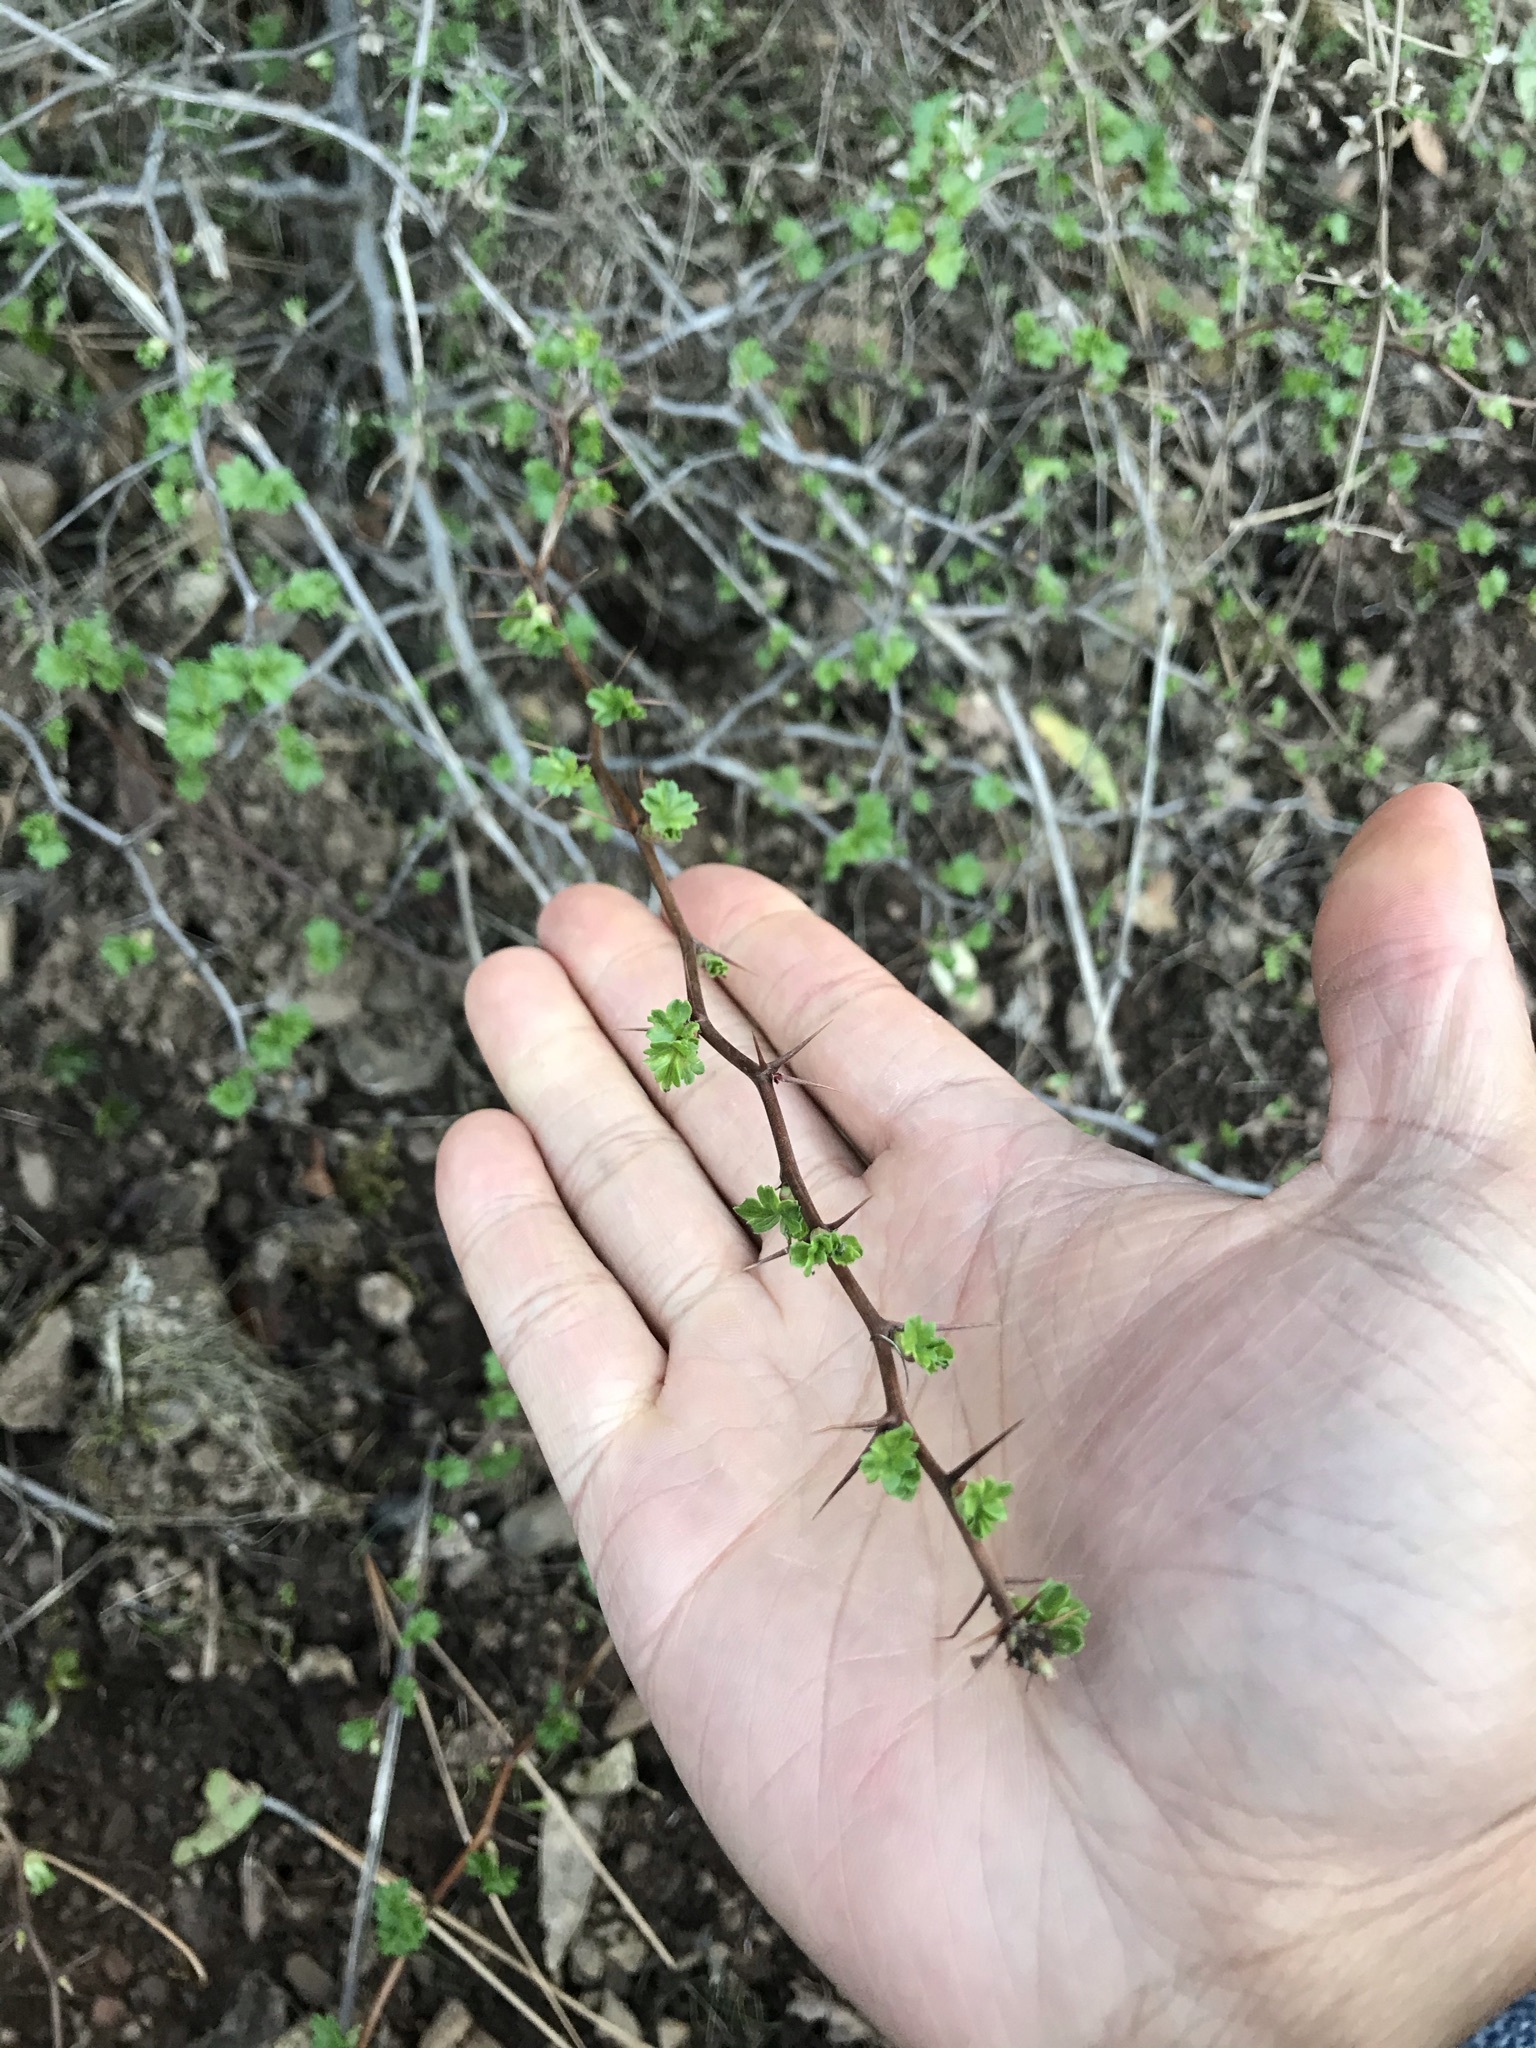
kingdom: Plantae
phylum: Tracheophyta
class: Magnoliopsida
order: Saxifragales
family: Grossulariaceae
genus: Ribes
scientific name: Ribes californicum
